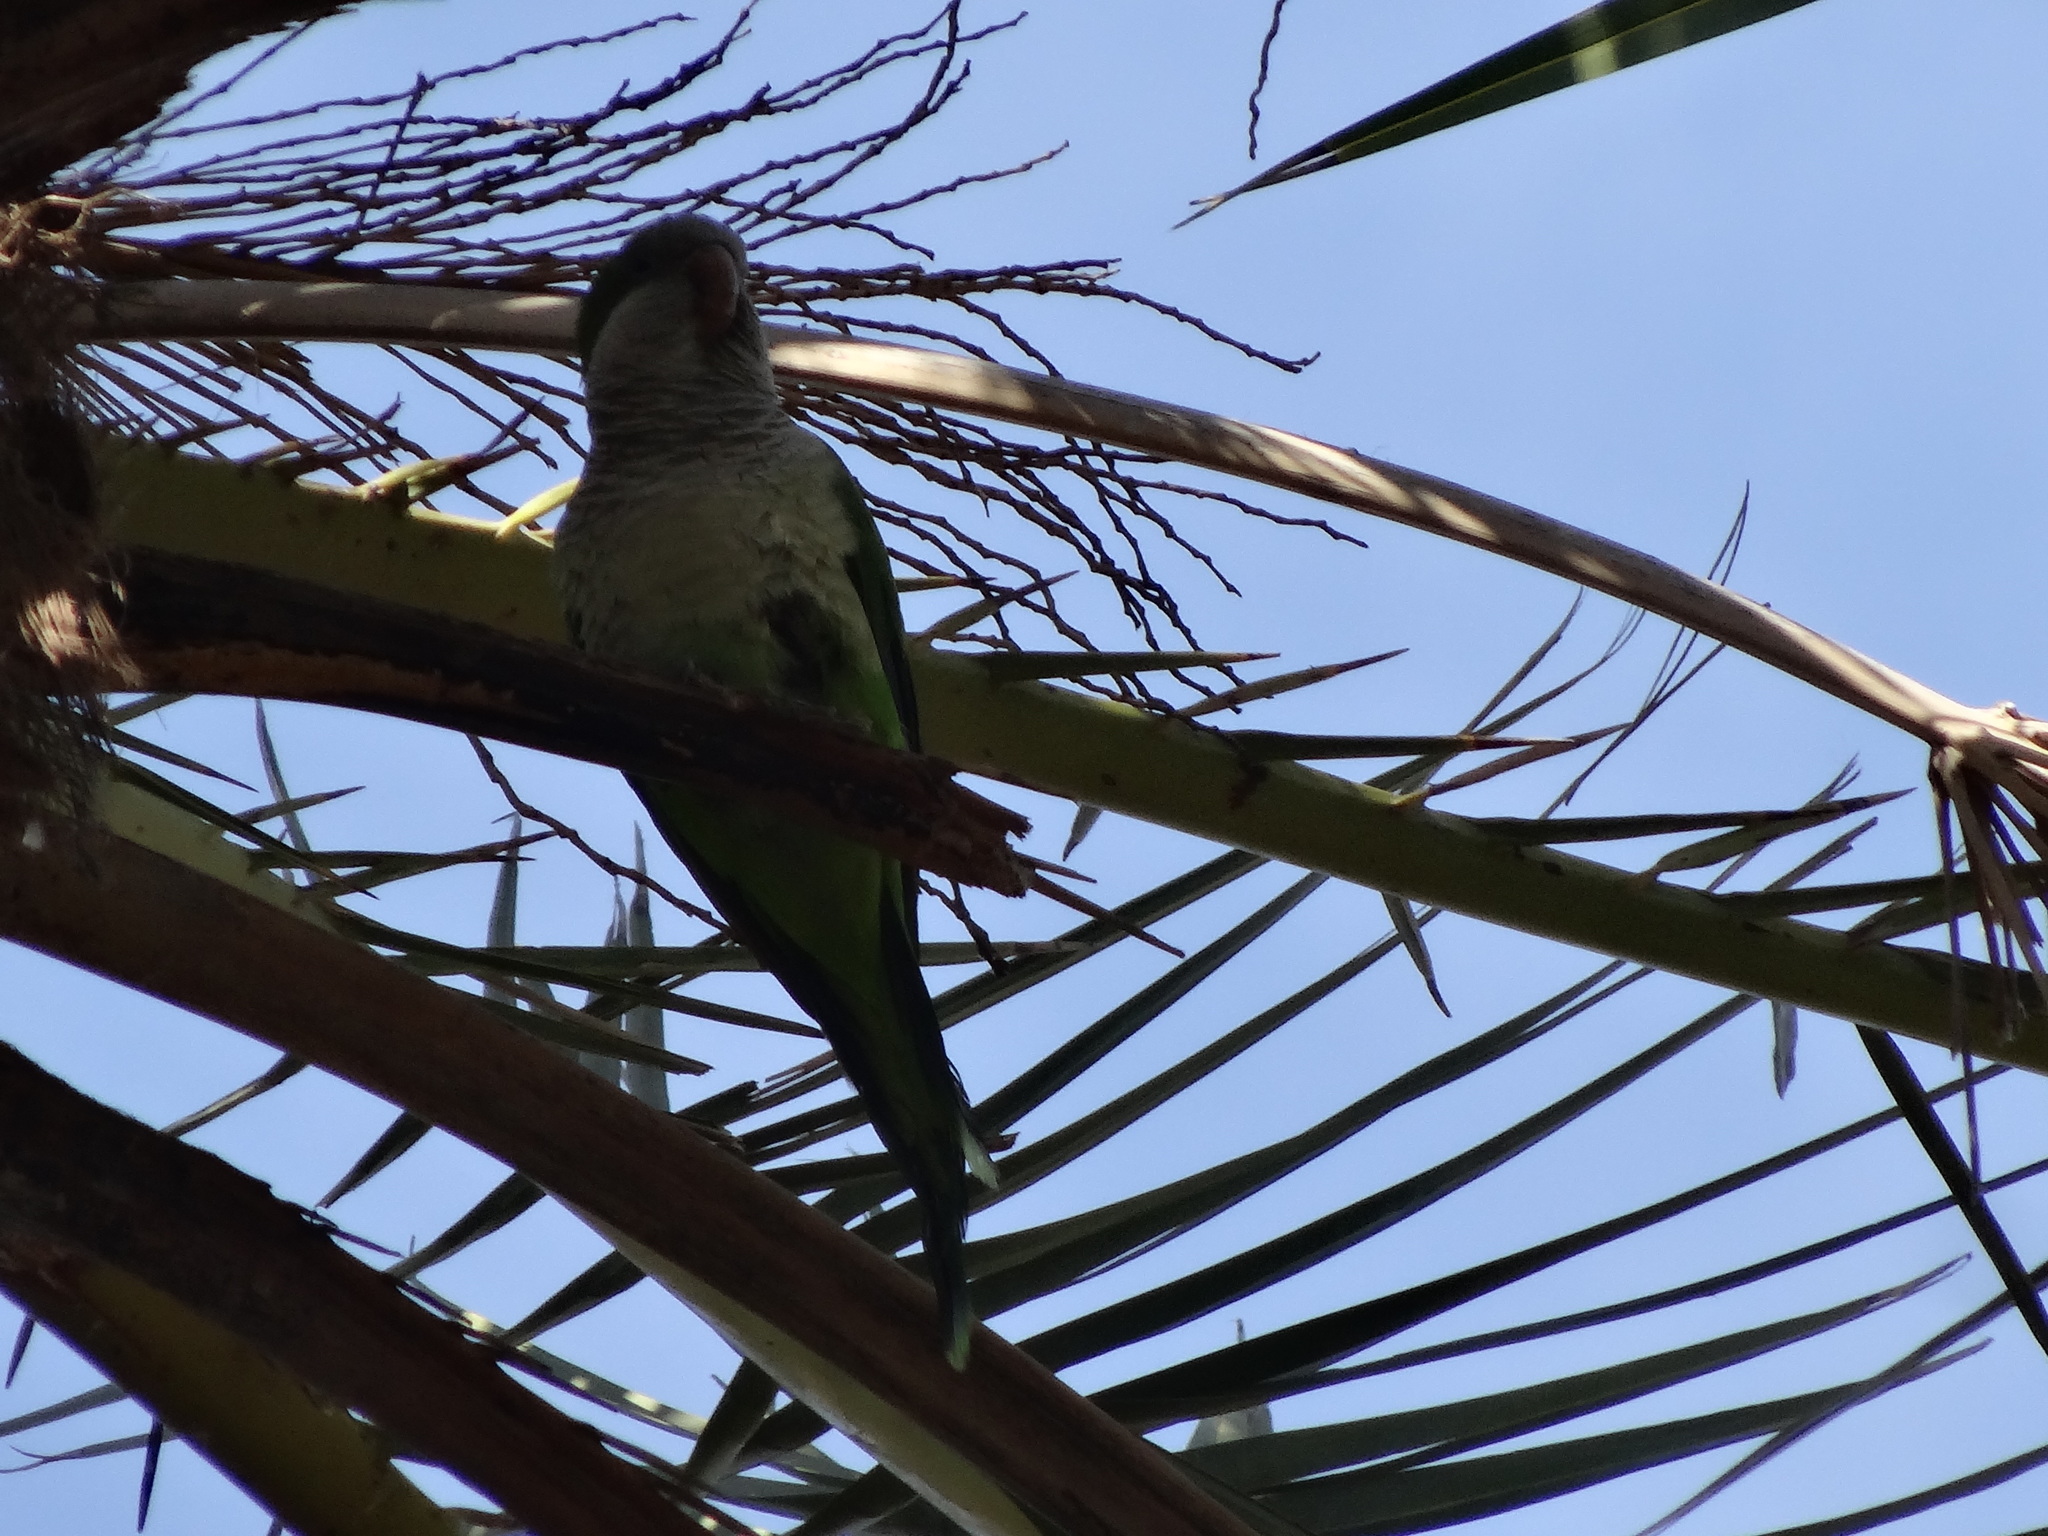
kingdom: Animalia
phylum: Chordata
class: Aves
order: Psittaciformes
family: Psittacidae
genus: Myiopsitta
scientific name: Myiopsitta monachus
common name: Monk parakeet
